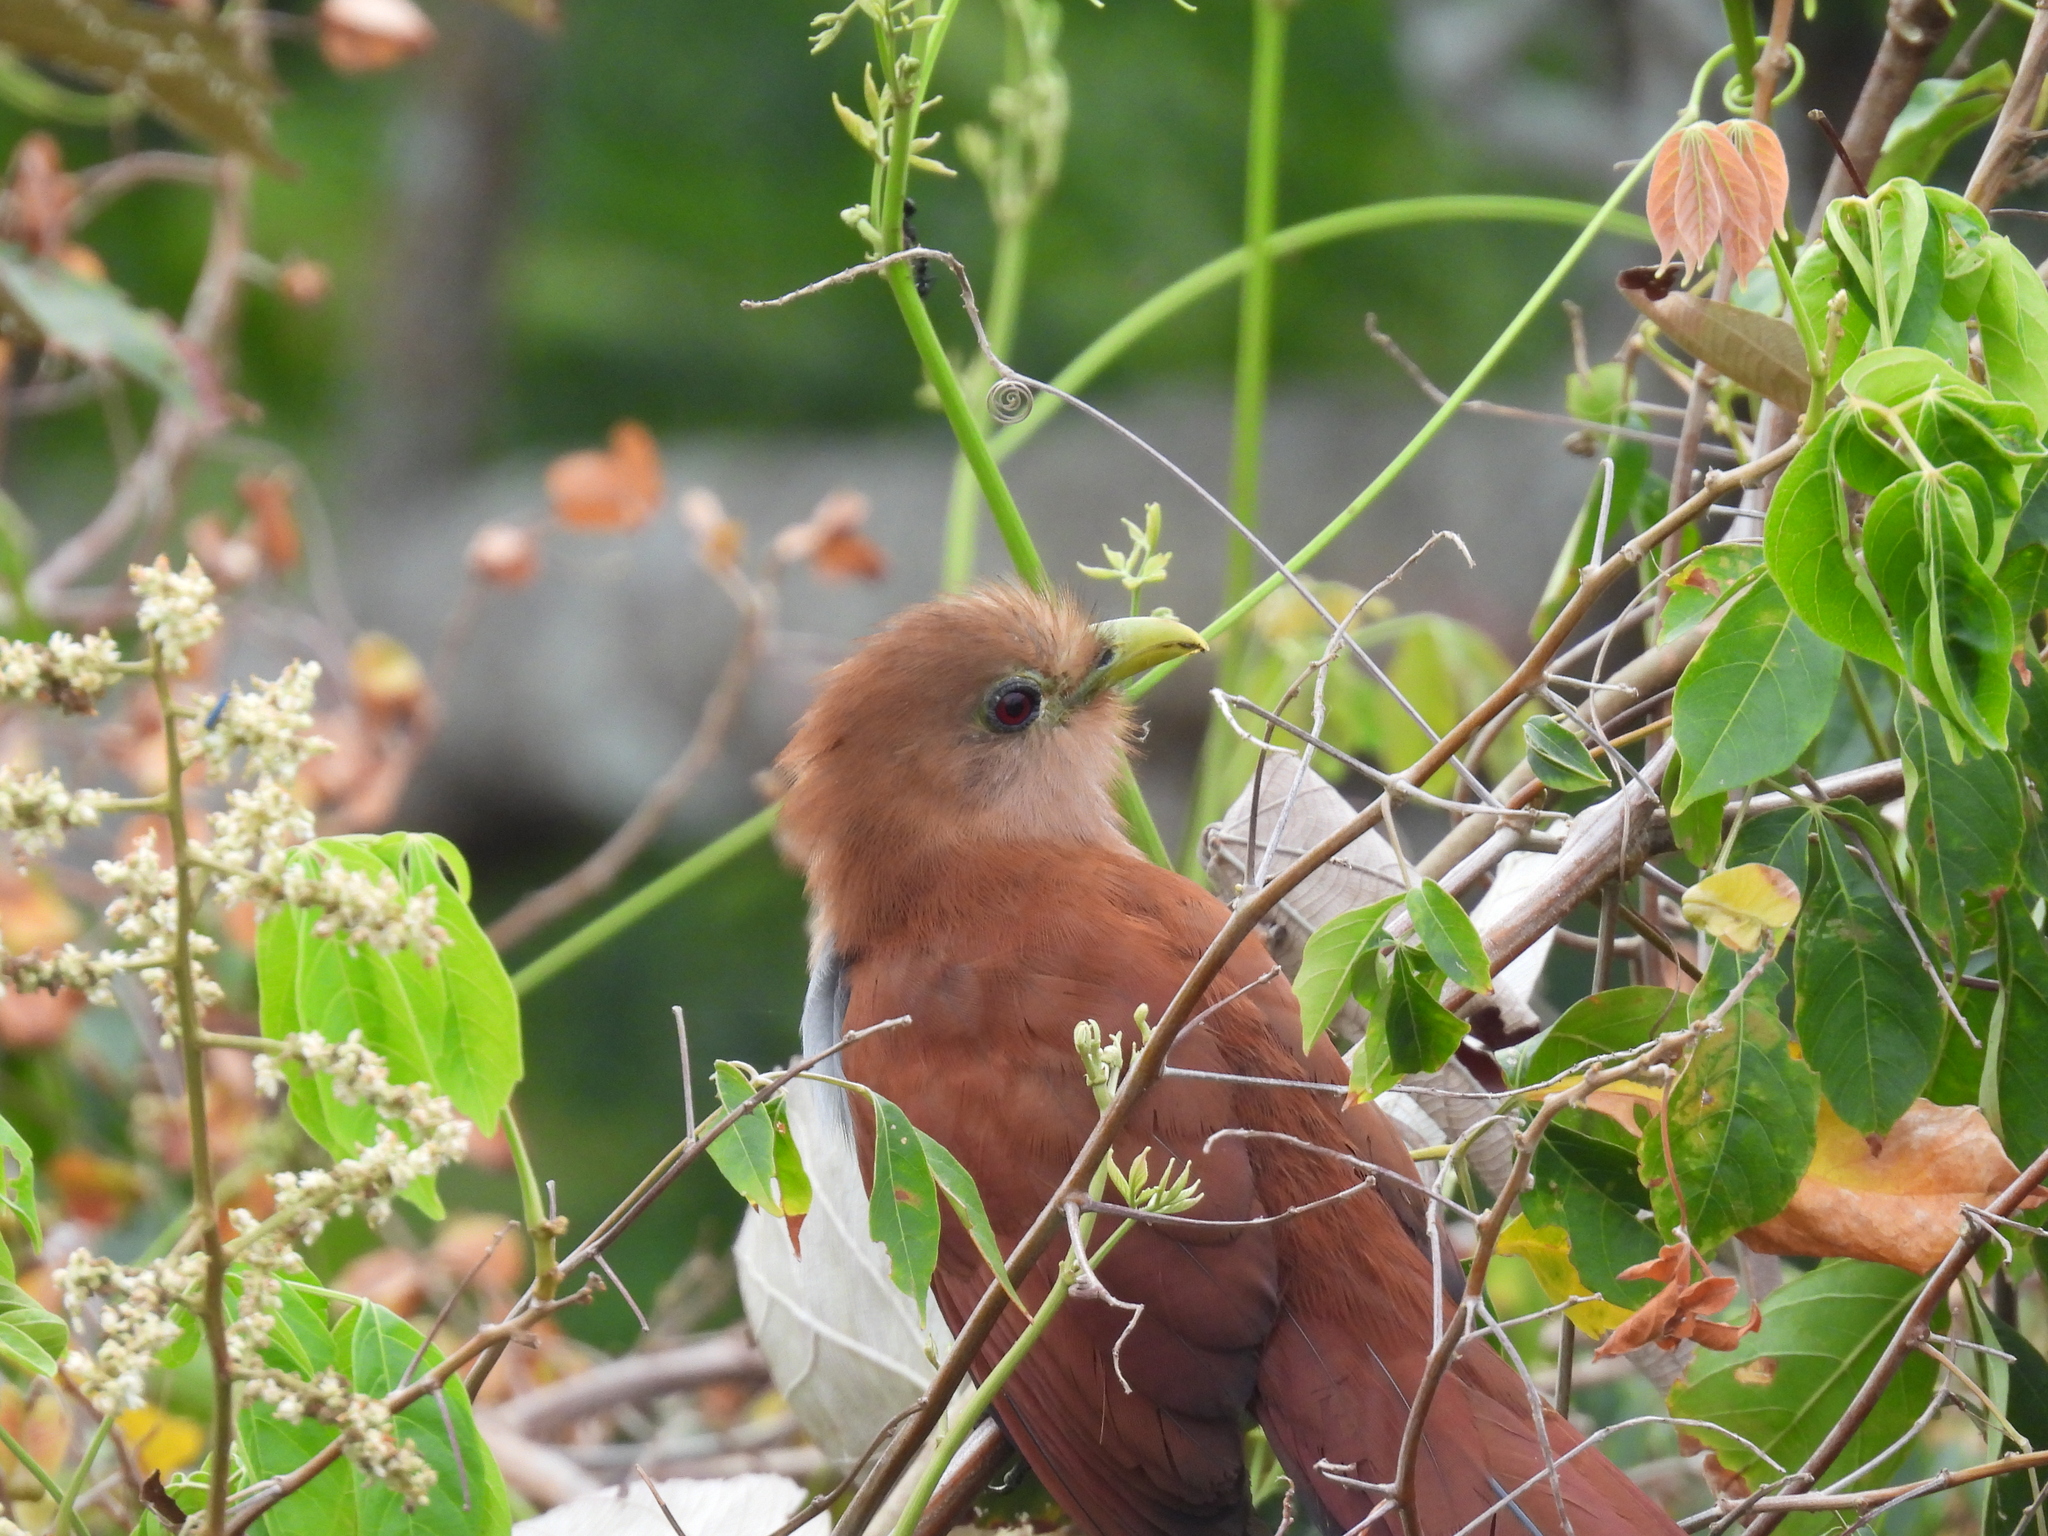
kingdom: Animalia
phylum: Chordata
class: Aves
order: Cuculiformes
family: Cuculidae
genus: Piaya
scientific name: Piaya cayana
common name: Squirrel cuckoo
